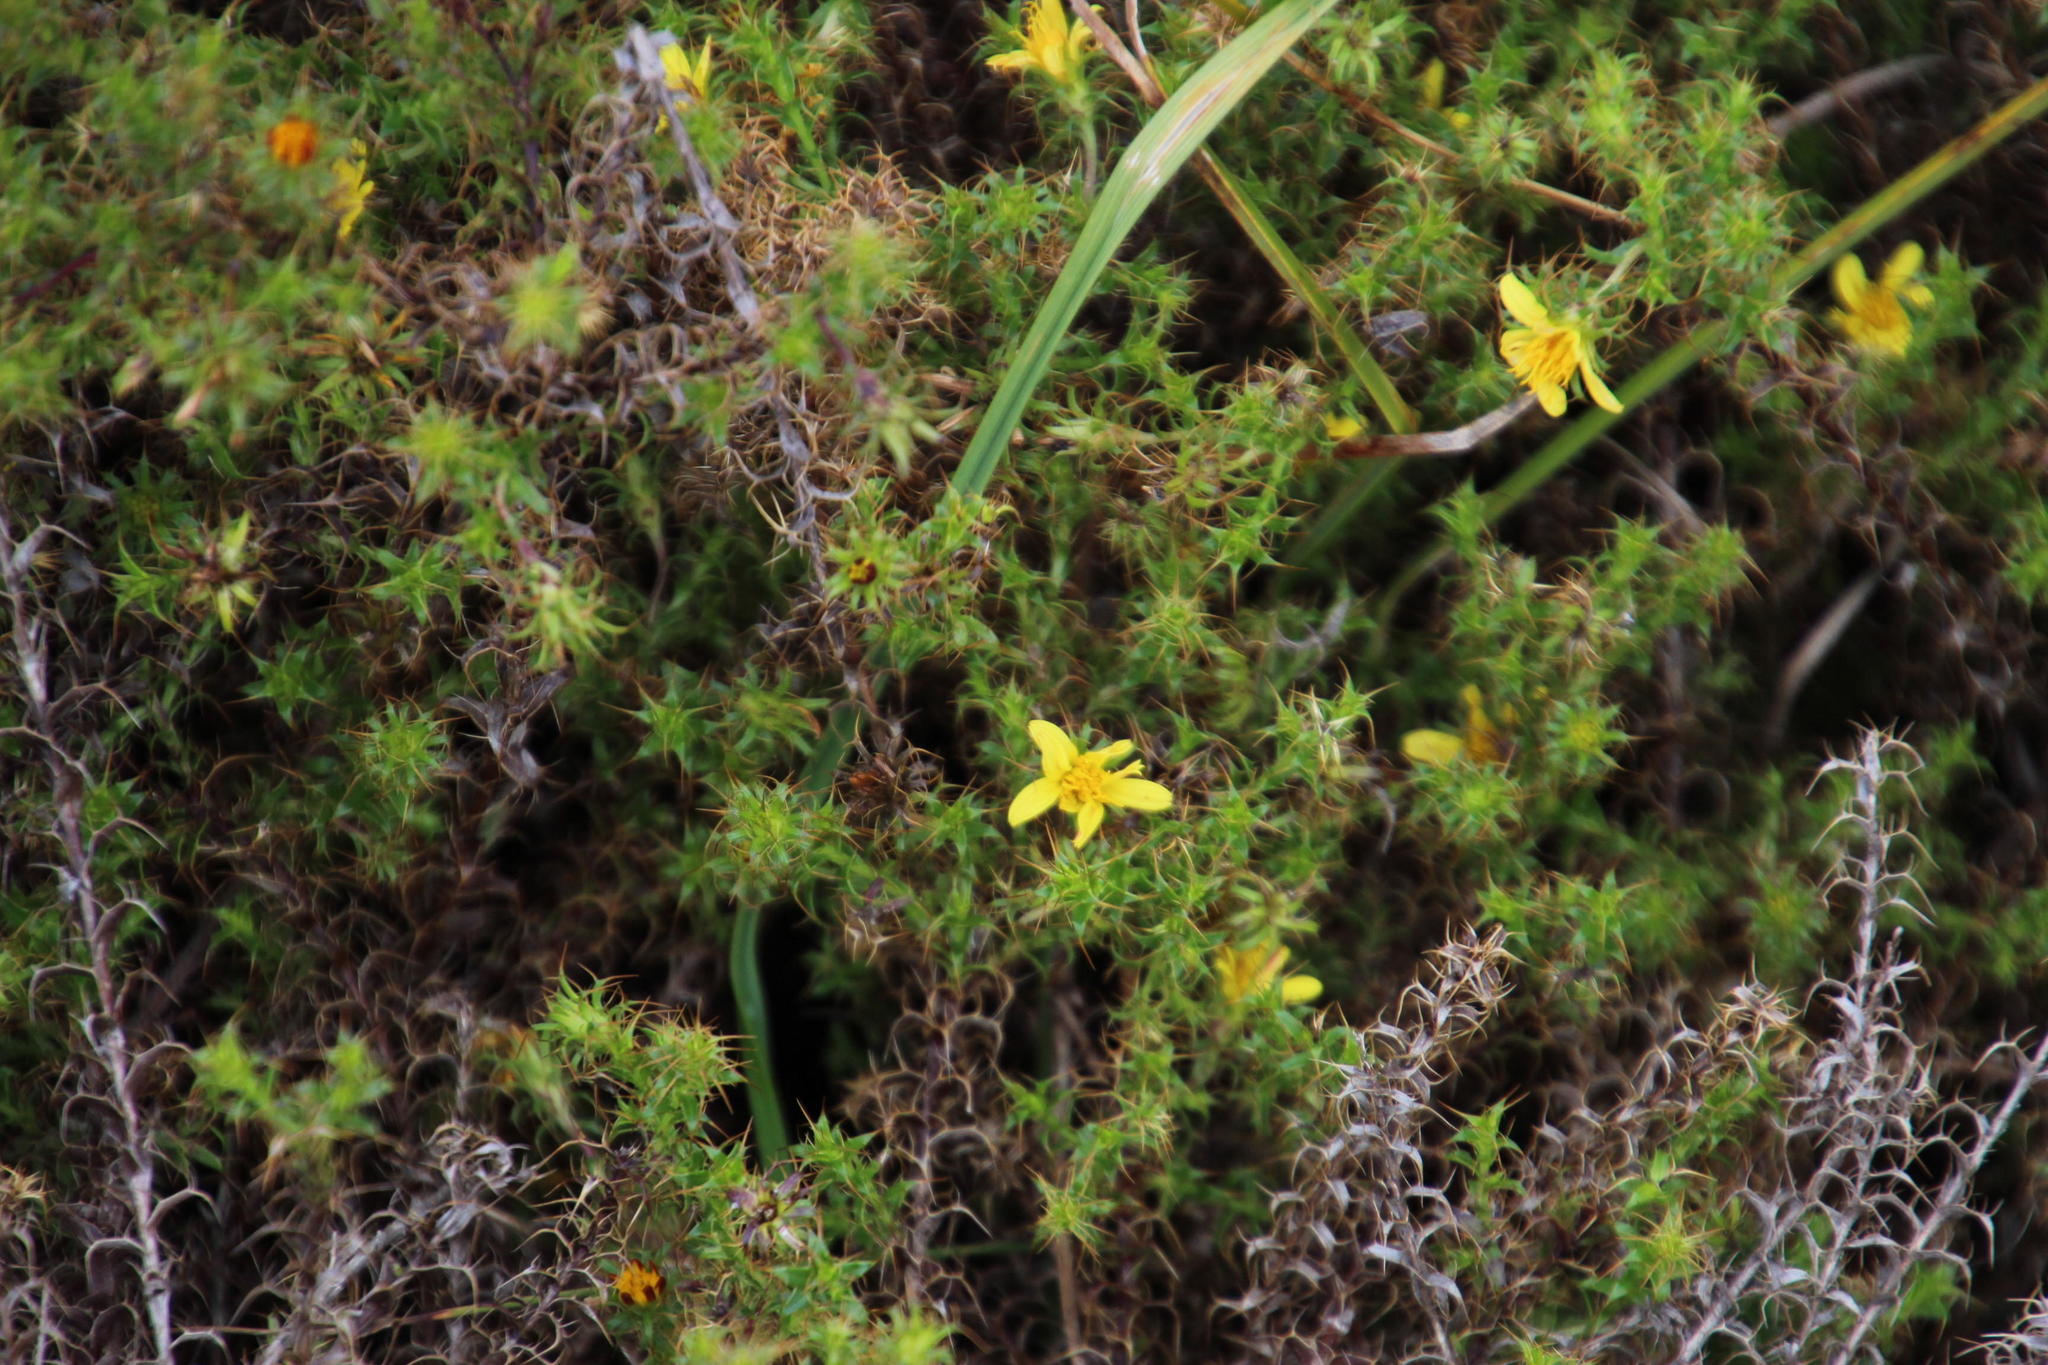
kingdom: Plantae
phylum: Tracheophyta
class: Magnoliopsida
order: Asterales
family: Asteraceae
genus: Cullumia
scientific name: Cullumia setosa
